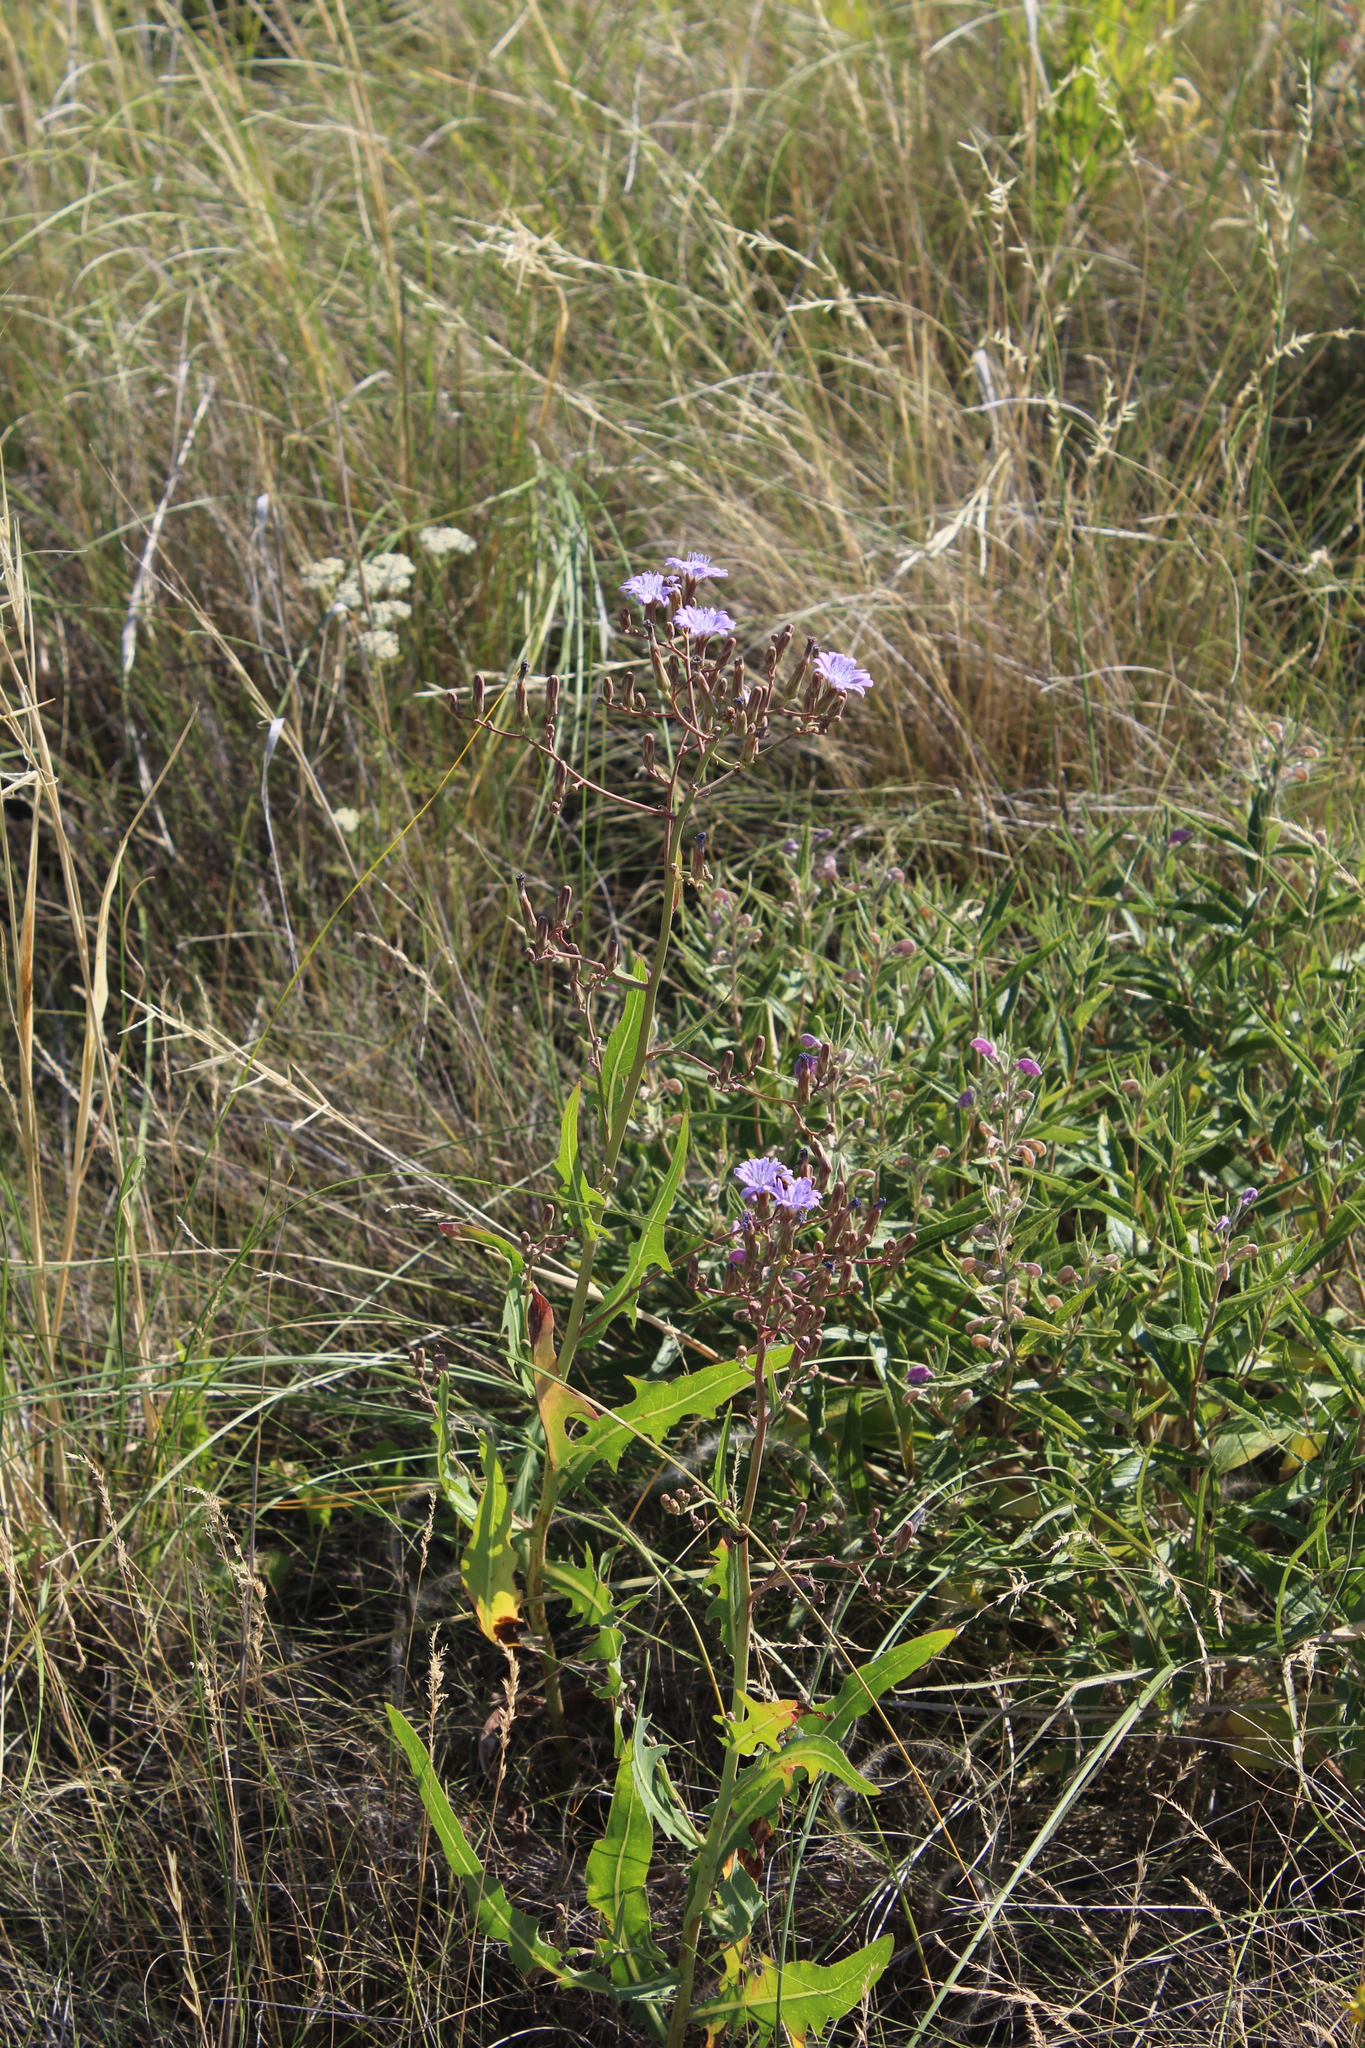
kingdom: Plantae
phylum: Tracheophyta
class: Magnoliopsida
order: Asterales
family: Asteraceae
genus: Lactuca
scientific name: Lactuca tatarica
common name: Blue lettuce
